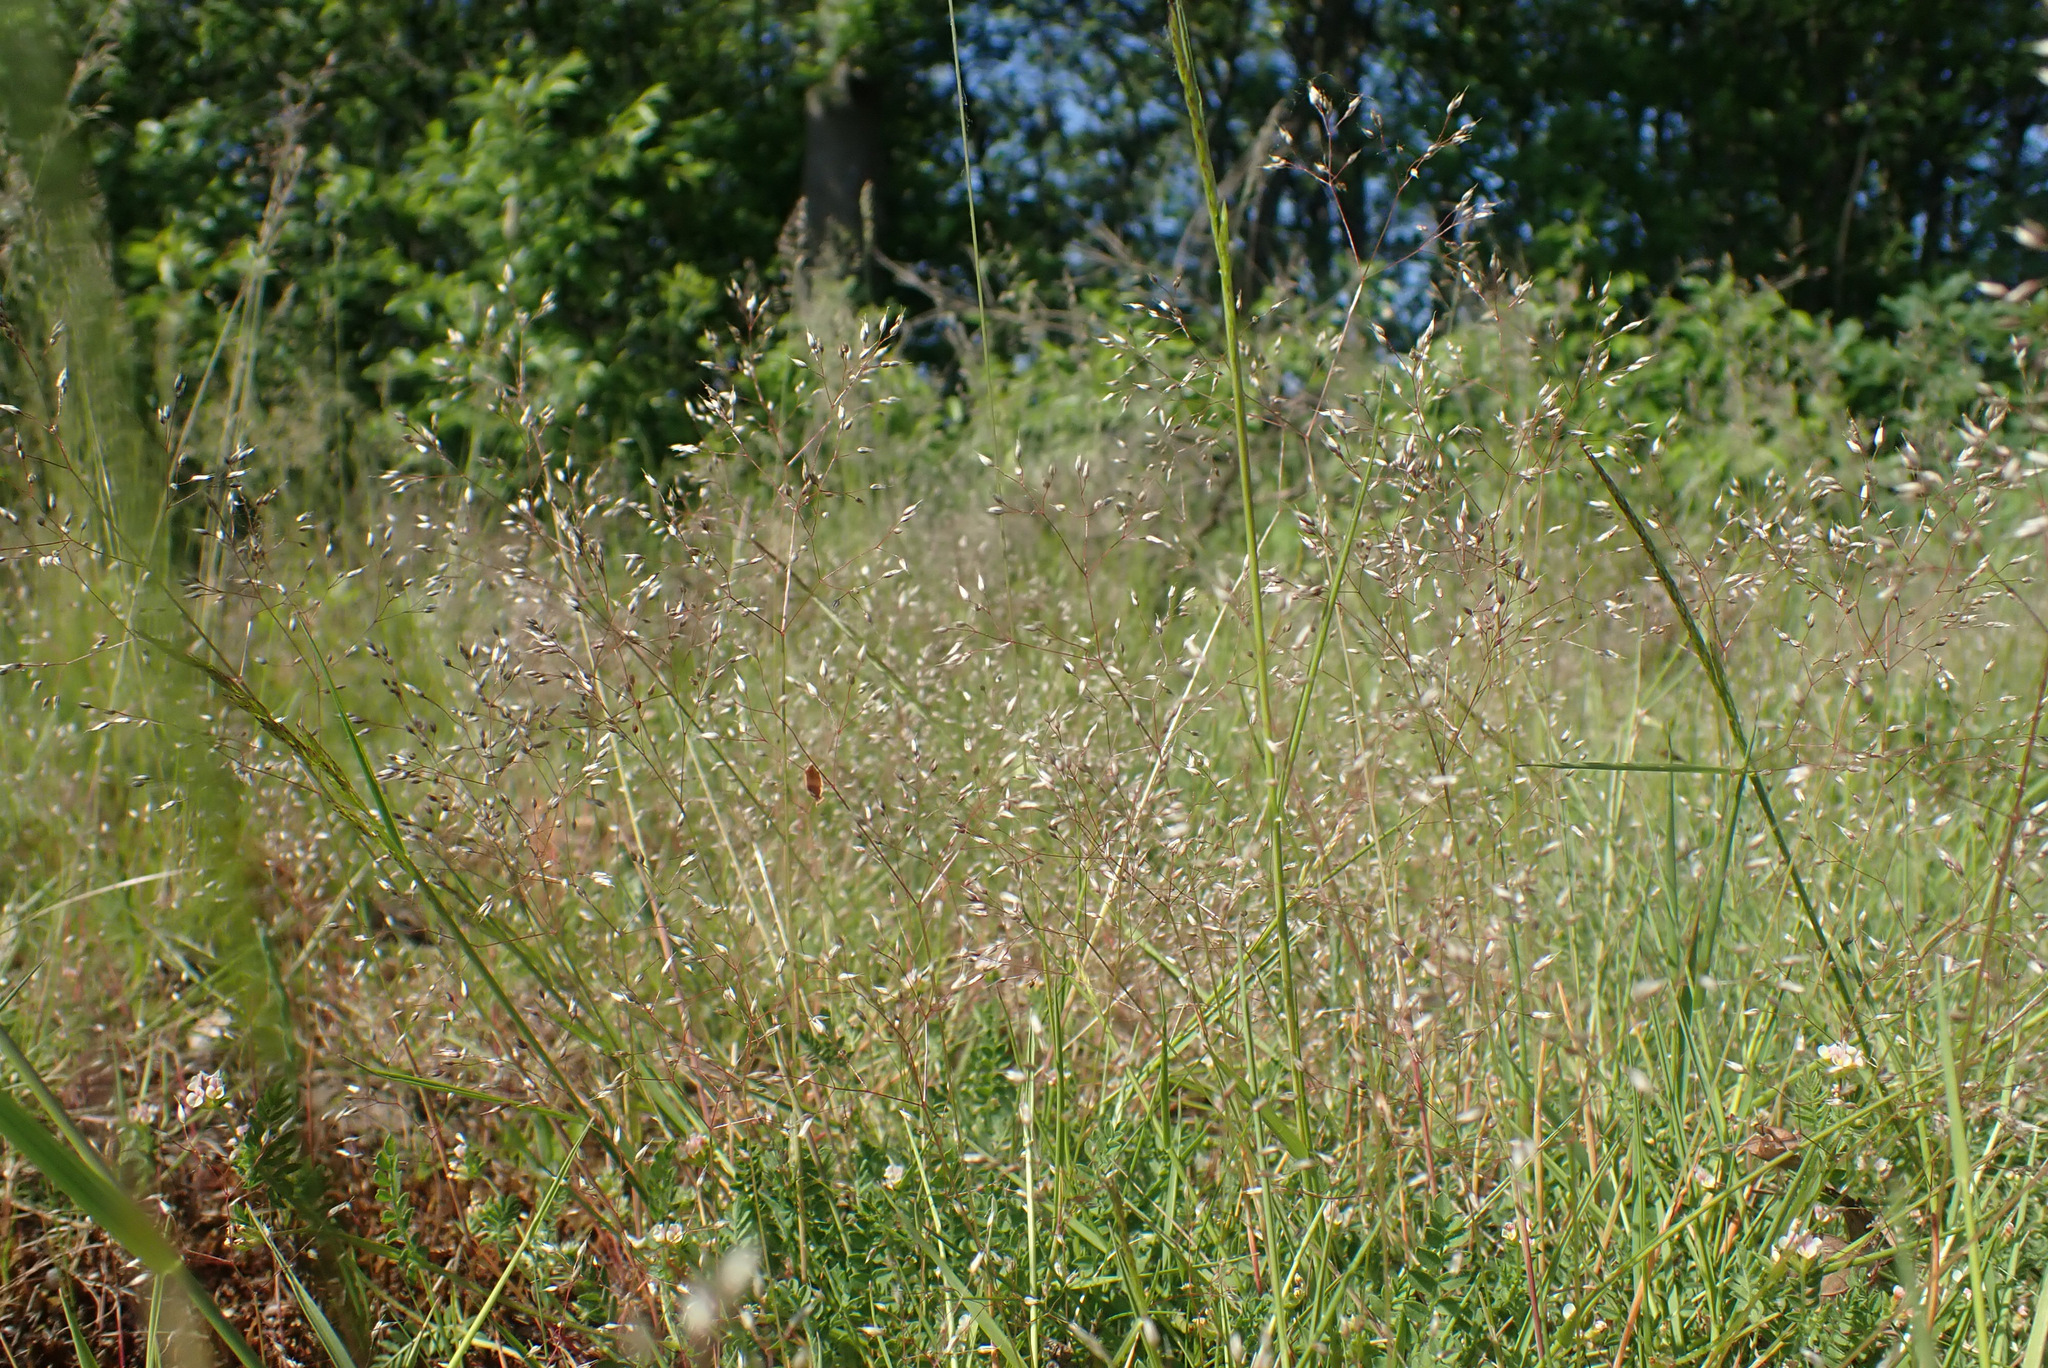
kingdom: Plantae
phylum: Tracheophyta
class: Liliopsida
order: Poales
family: Poaceae
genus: Aira
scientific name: Aira caryophyllea
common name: Silver hairgrass
